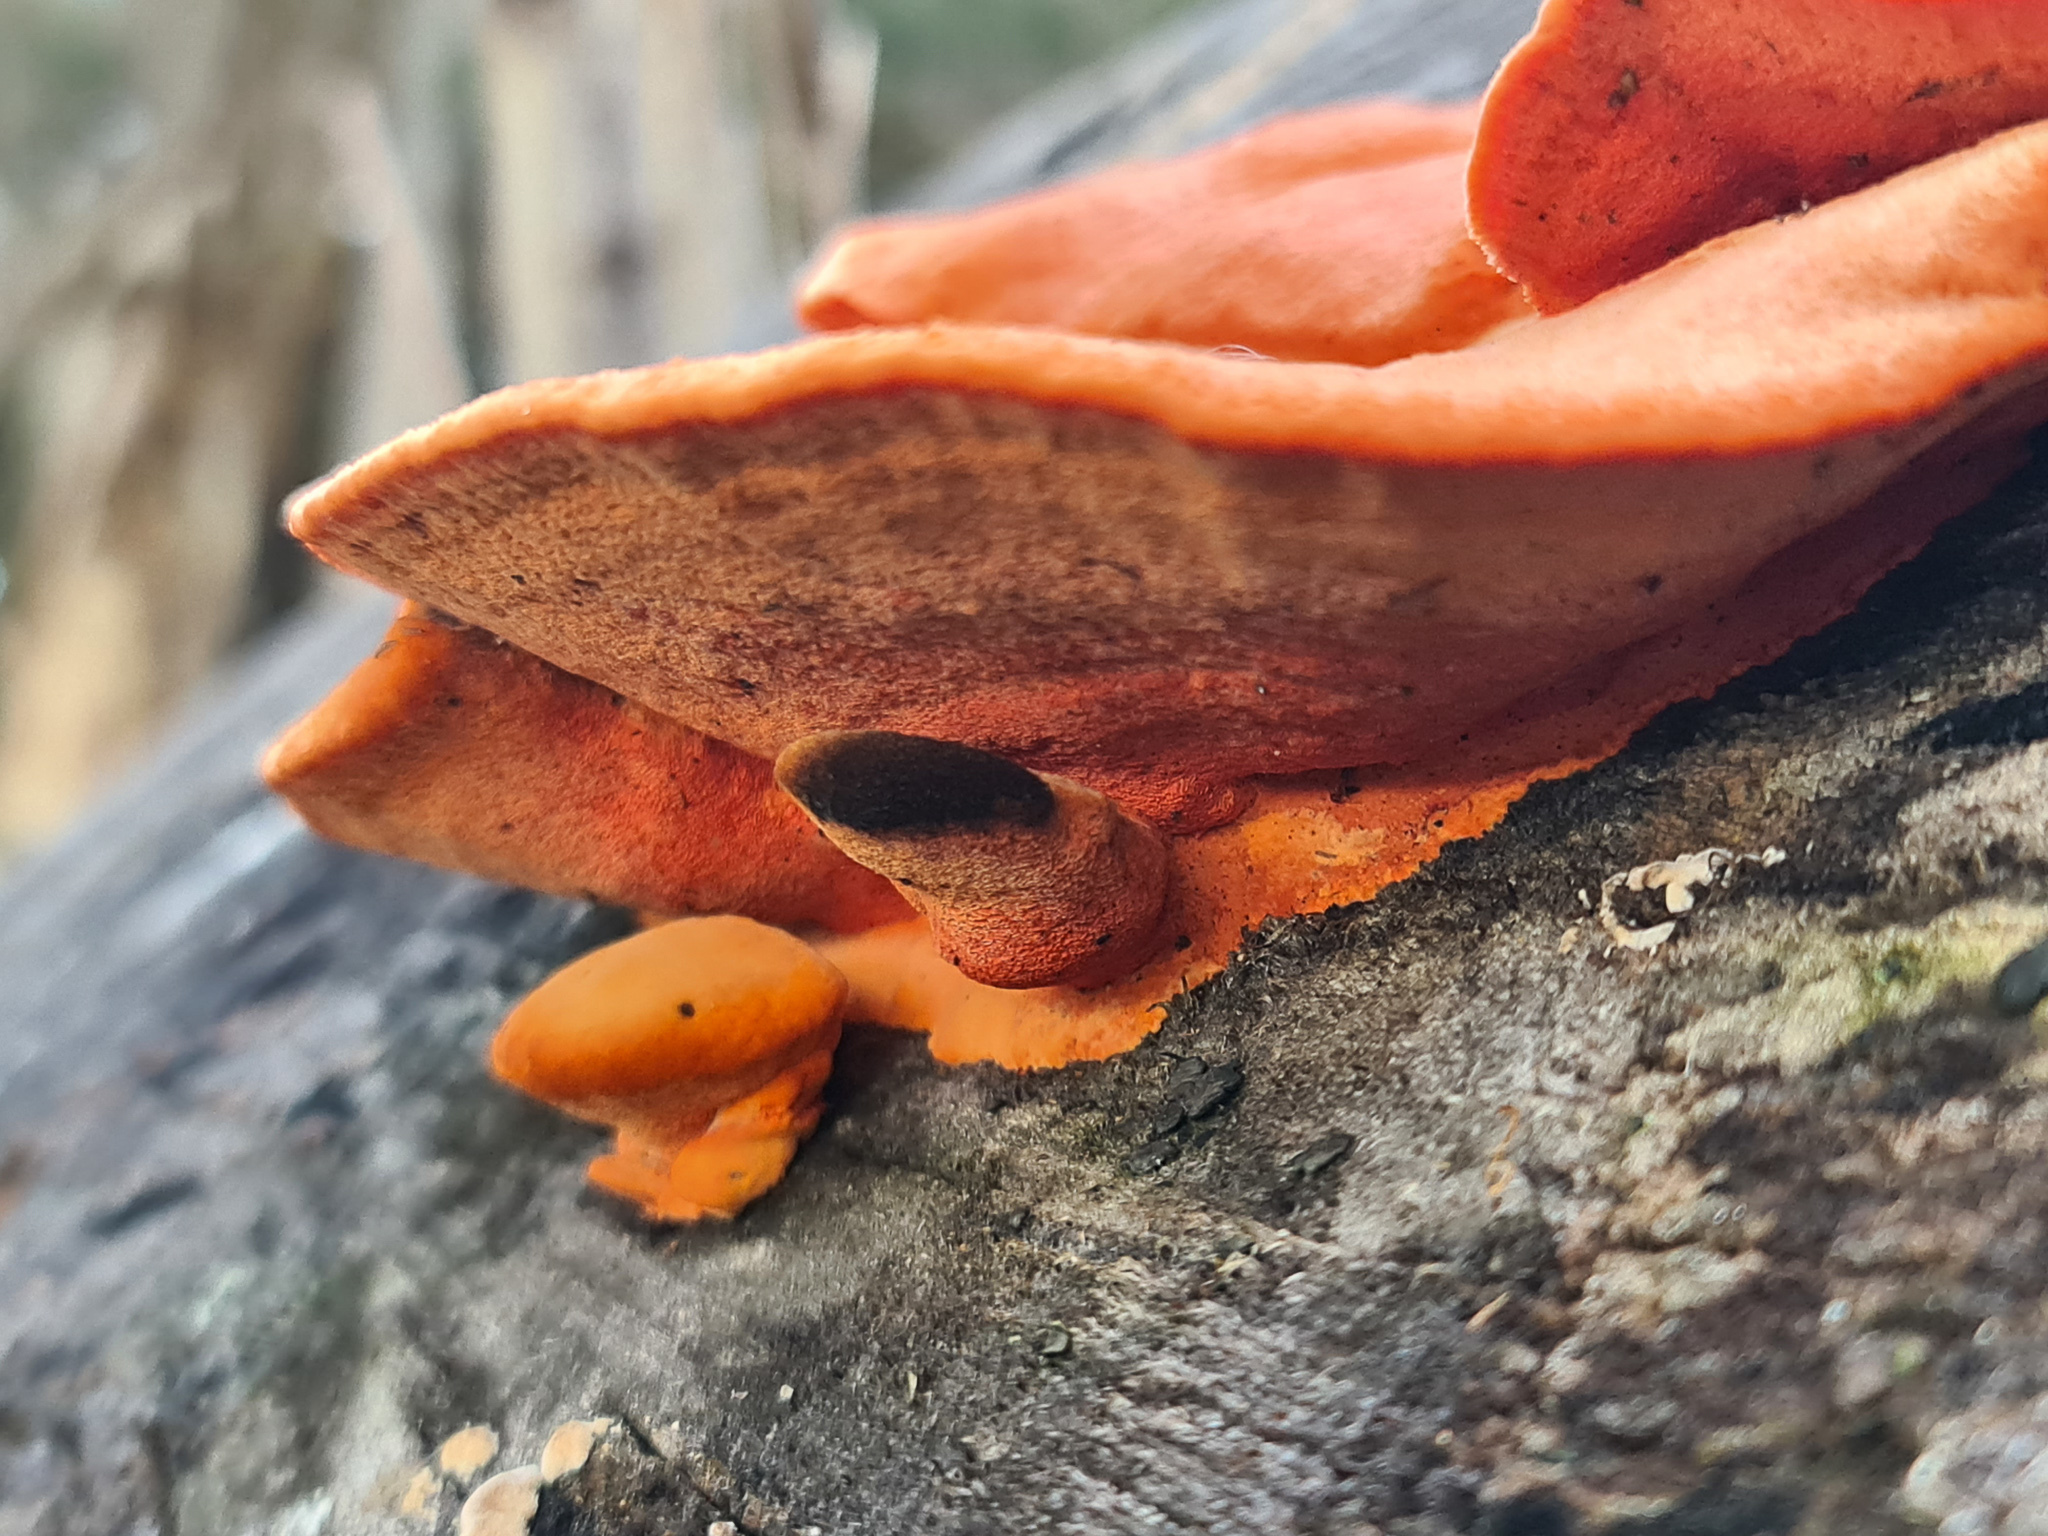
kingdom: Fungi
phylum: Basidiomycota
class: Agaricomycetes
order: Polyporales
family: Polyporaceae
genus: Trametes
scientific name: Trametes coccinea
